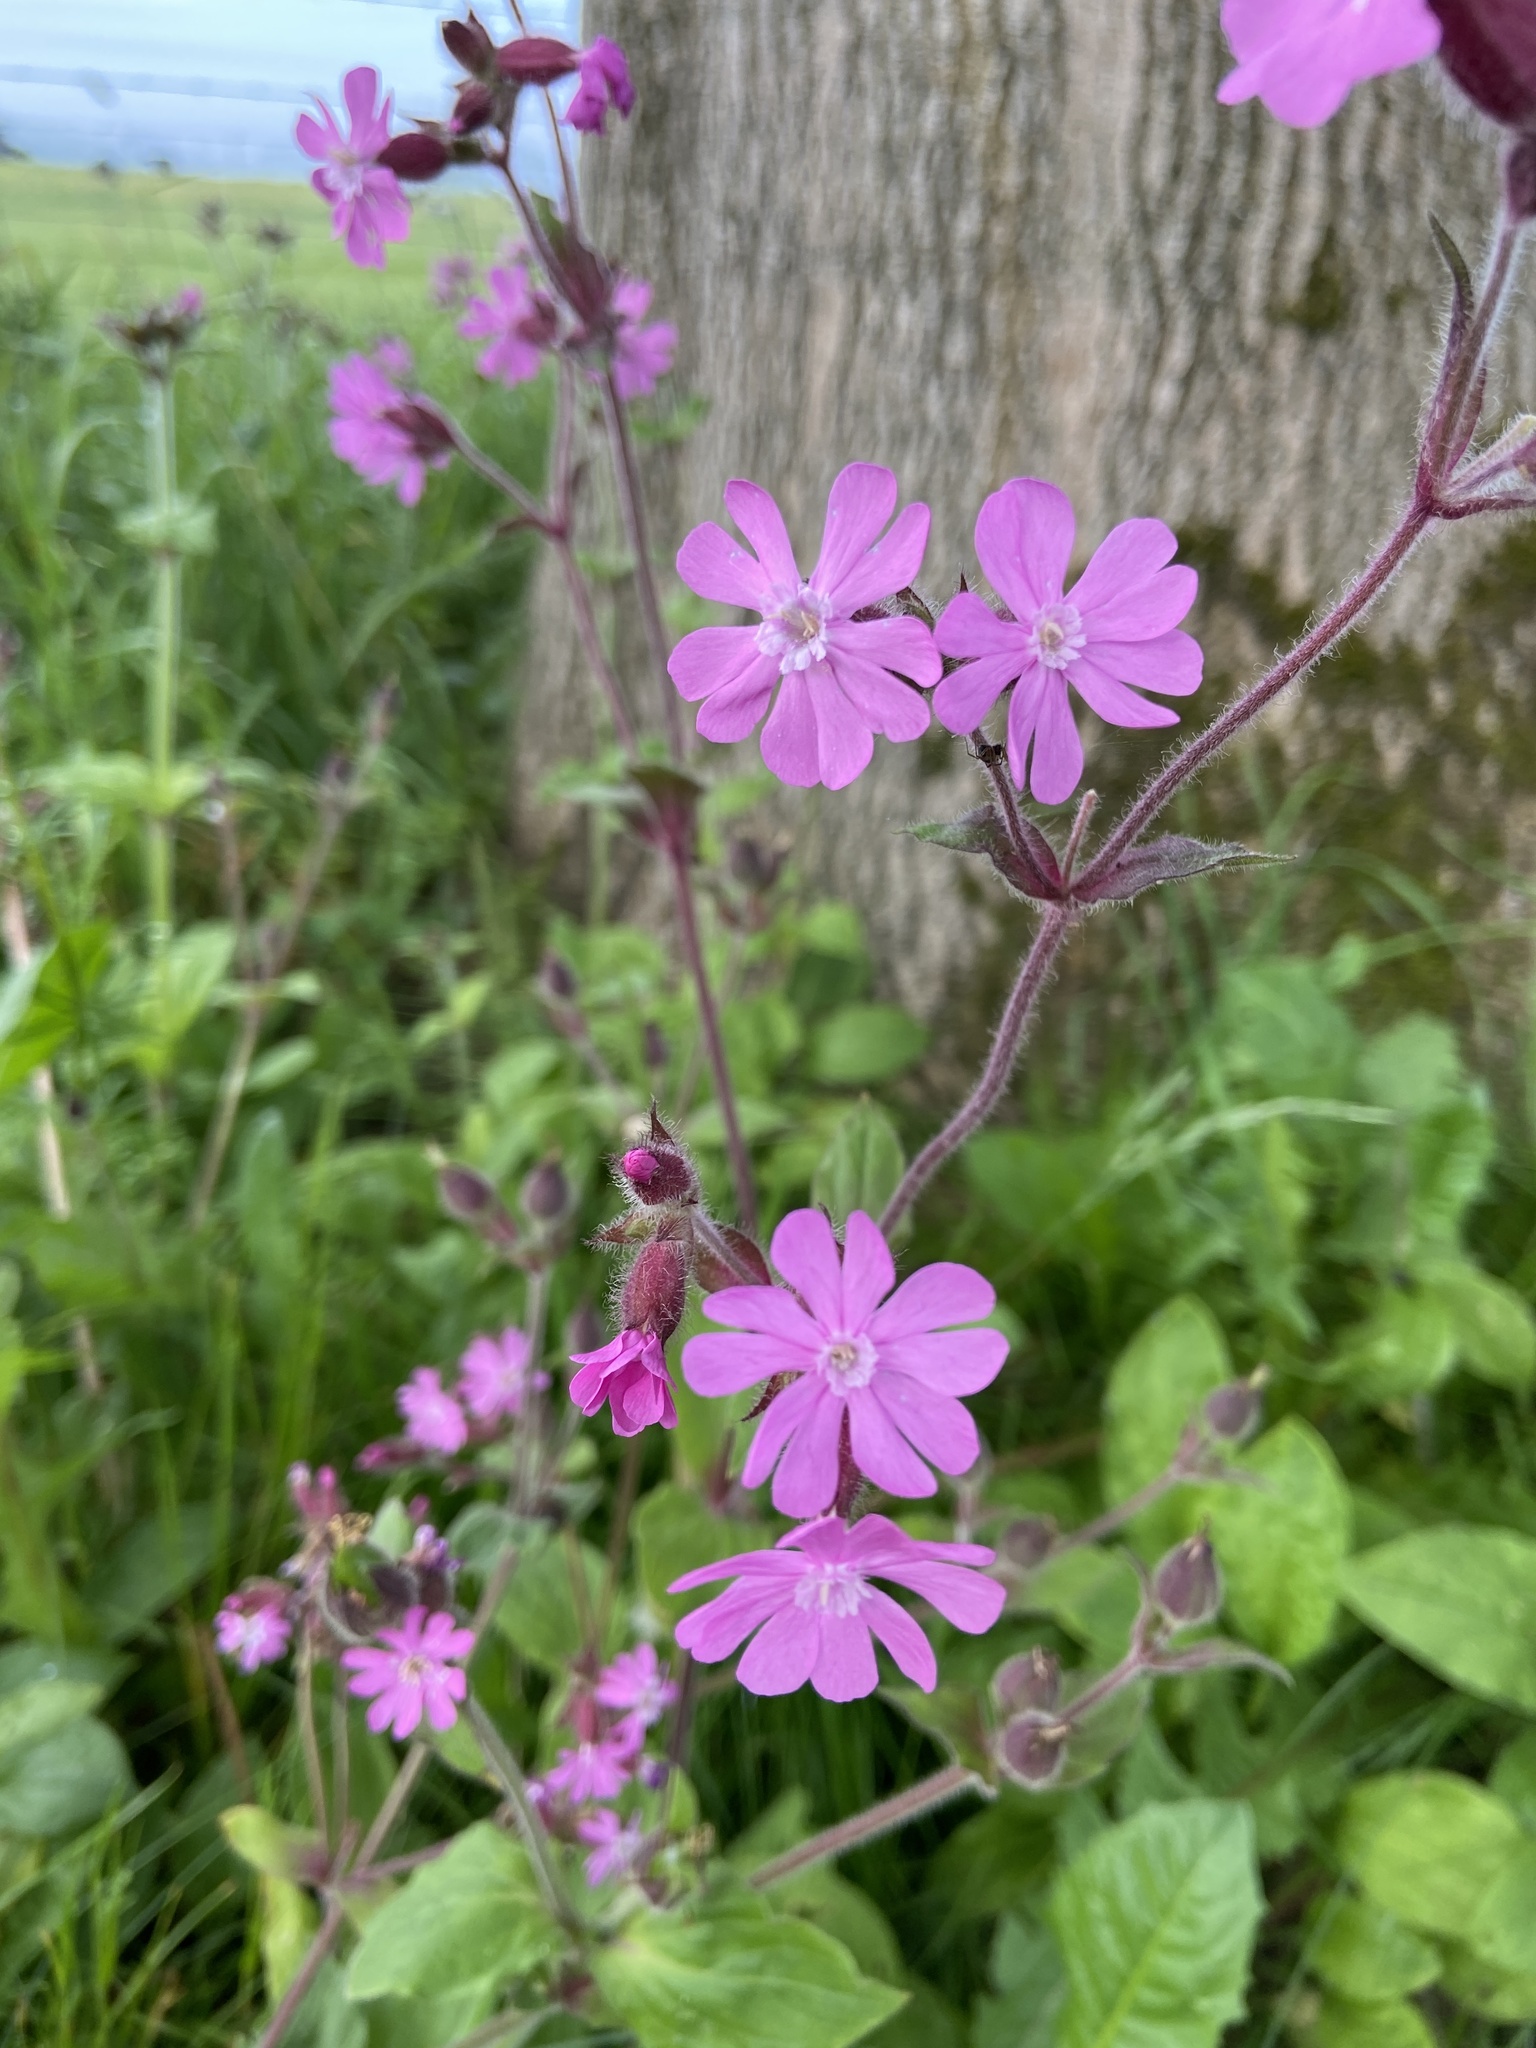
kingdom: Plantae
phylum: Tracheophyta
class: Magnoliopsida
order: Caryophyllales
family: Caryophyllaceae
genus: Silene
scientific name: Silene dioica
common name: Red campion
